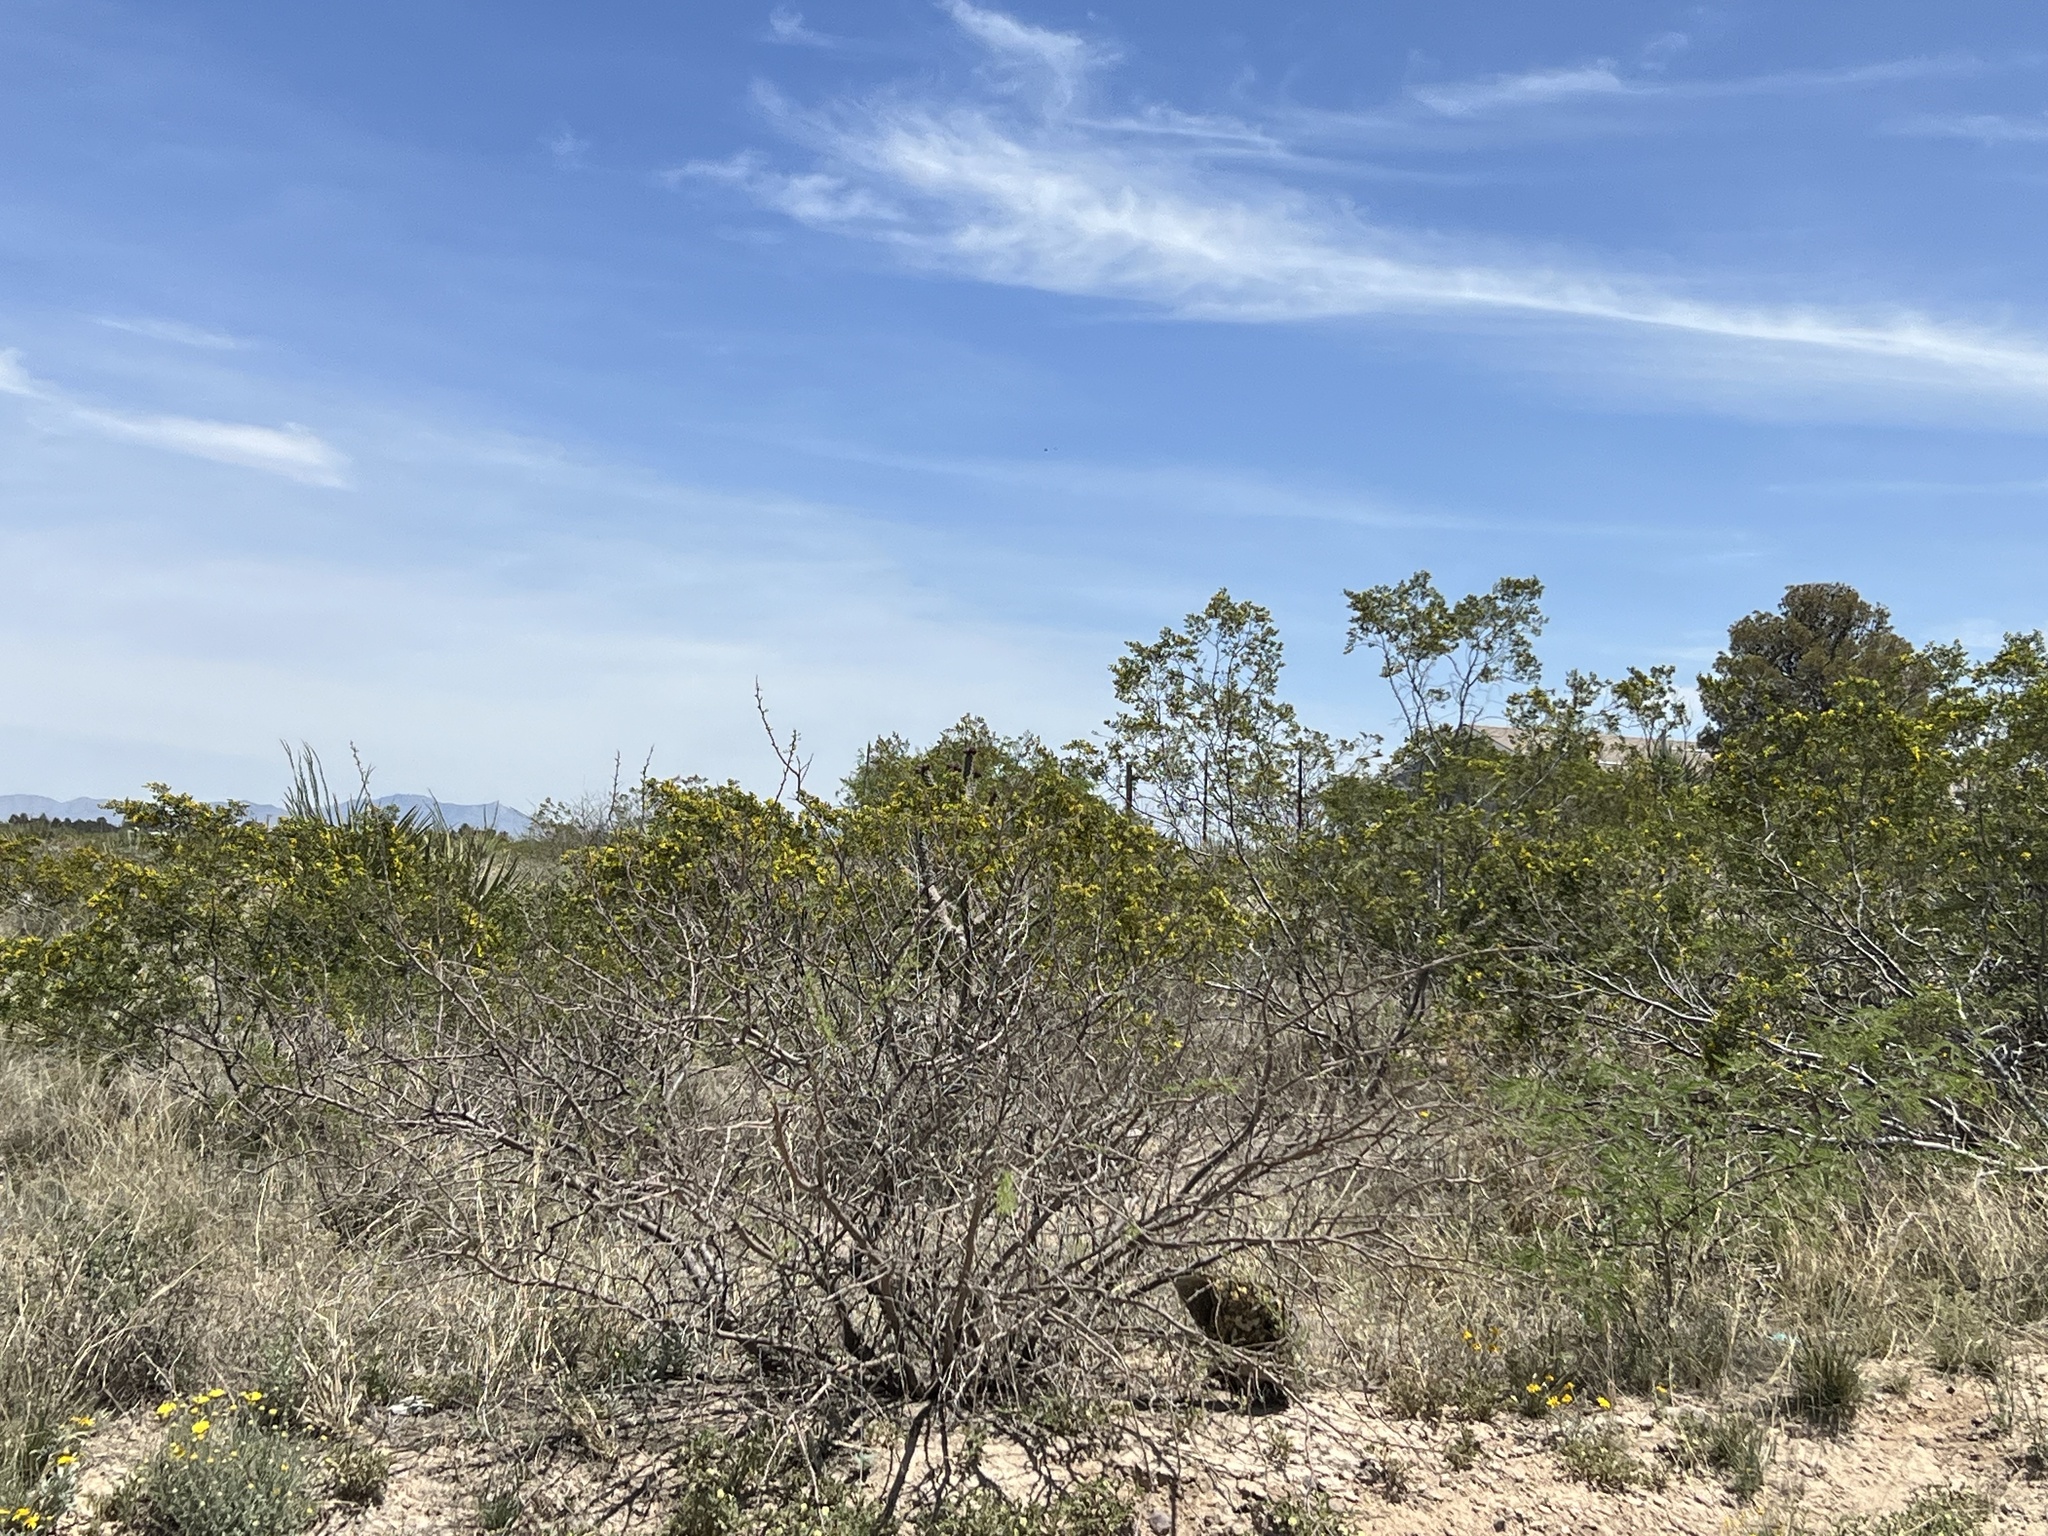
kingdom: Plantae
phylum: Tracheophyta
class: Magnoliopsida
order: Zygophyllales
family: Zygophyllaceae
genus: Larrea
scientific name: Larrea tridentata
